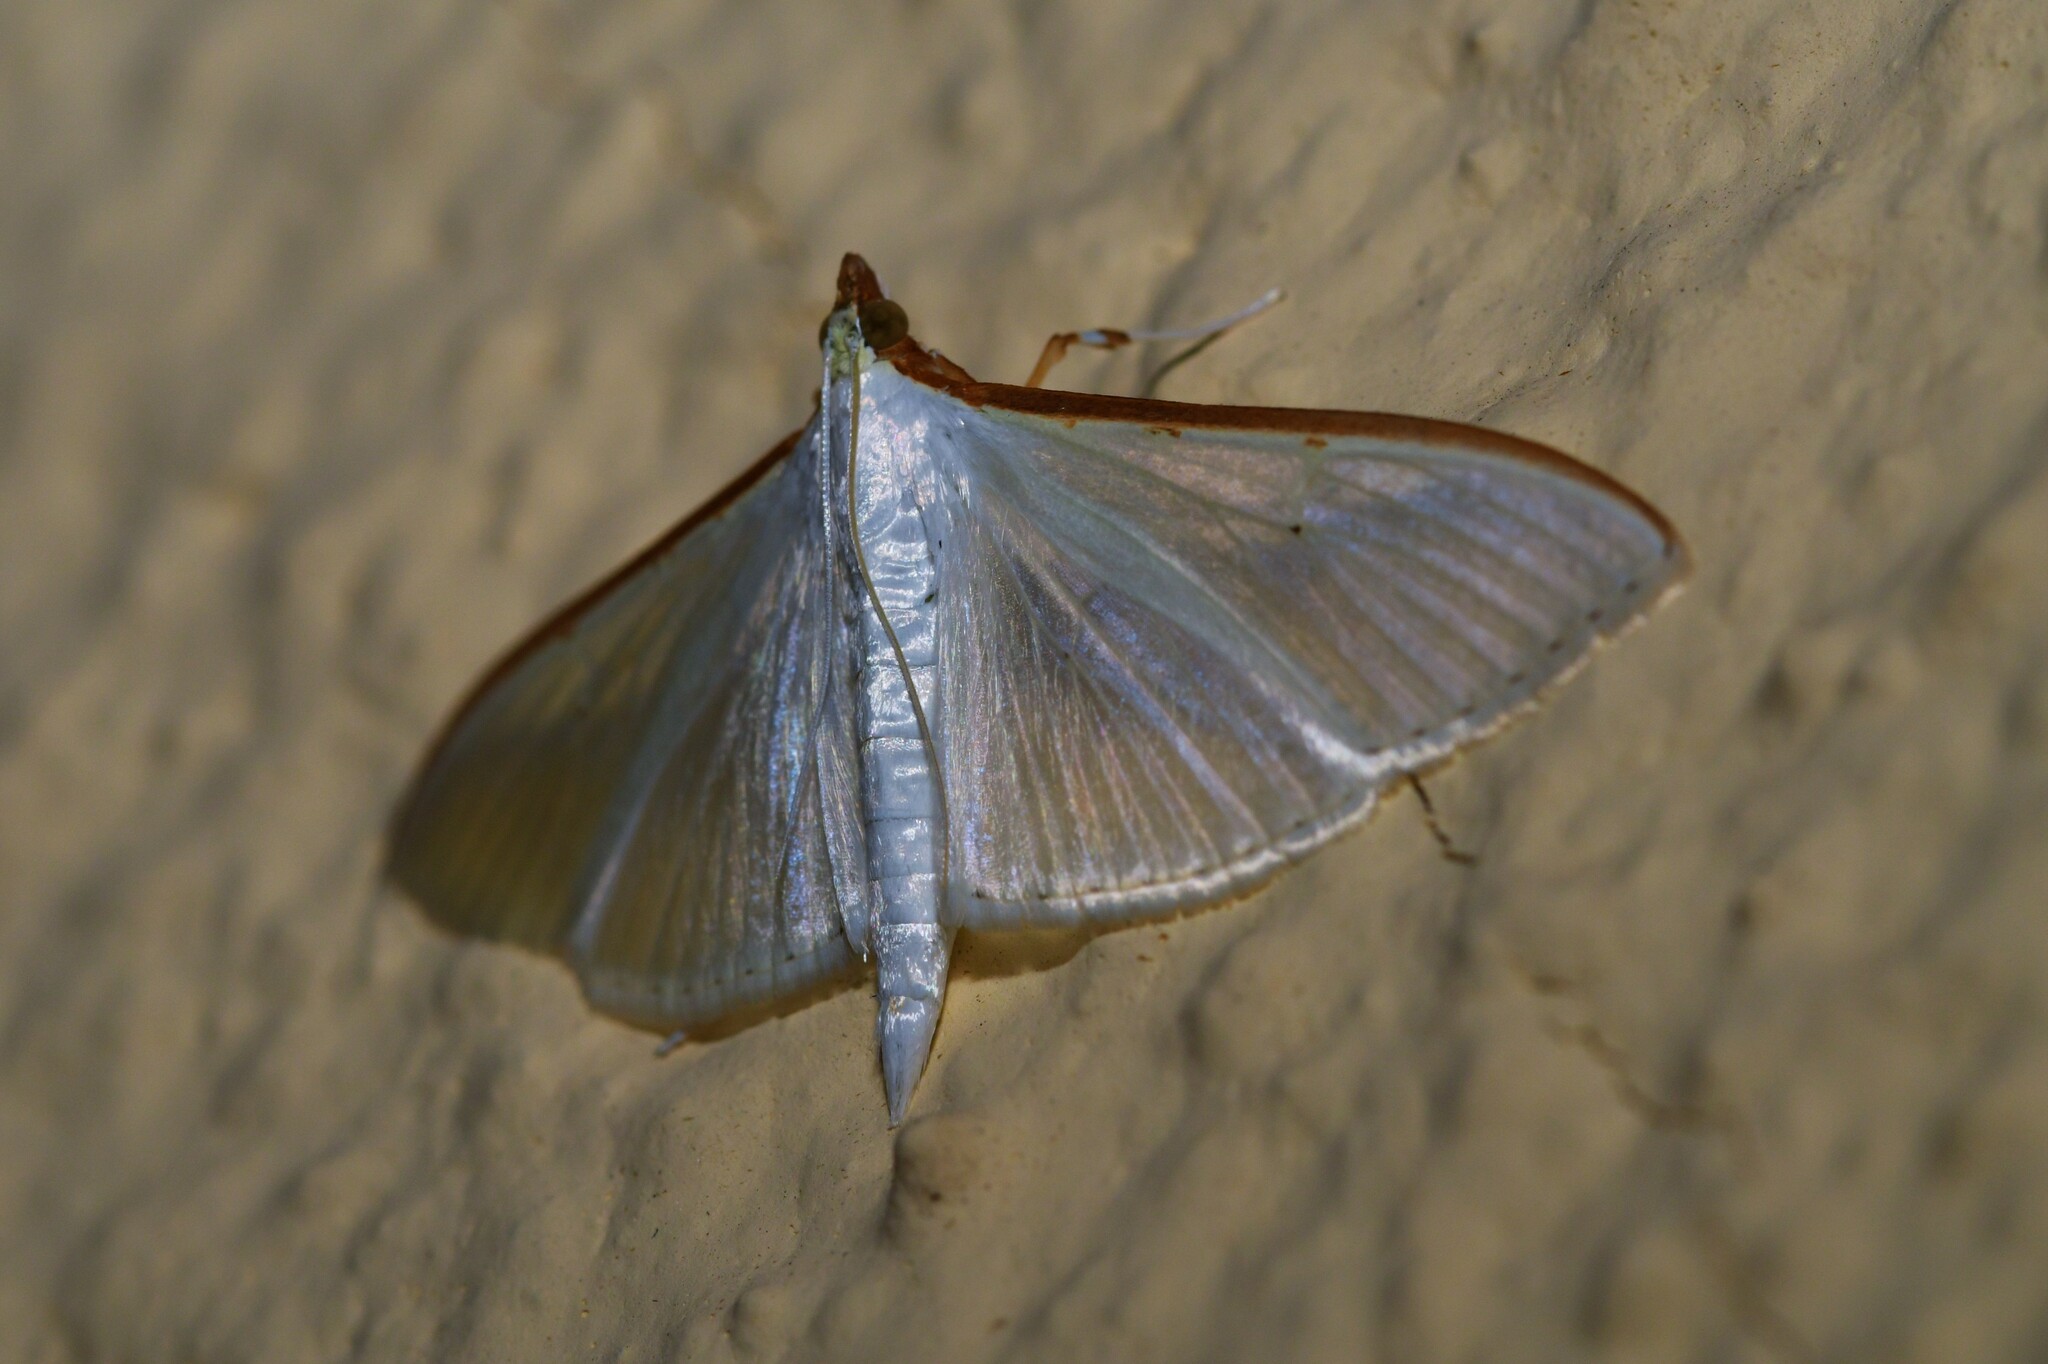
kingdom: Animalia
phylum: Arthropoda
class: Insecta
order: Lepidoptera
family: Crambidae
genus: Palpita
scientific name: Palpita vitrealis
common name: Olive-tree pearl
